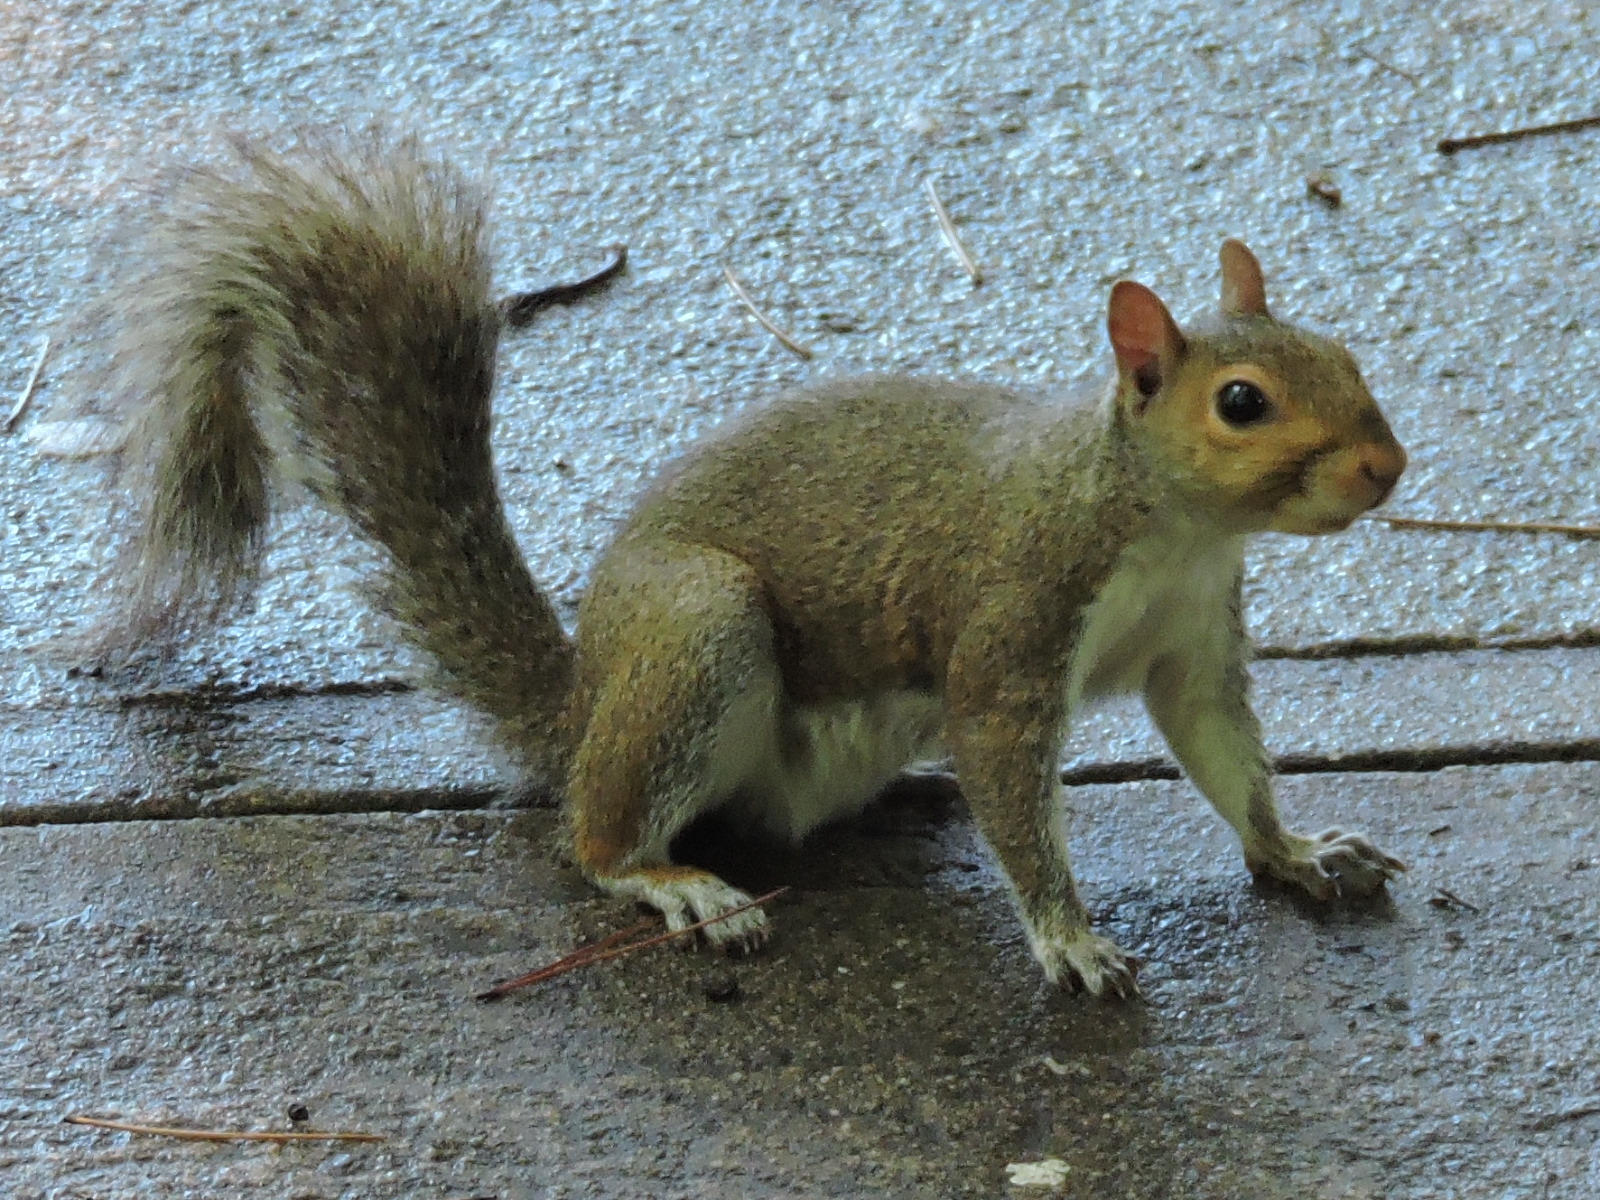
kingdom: Animalia
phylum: Chordata
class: Mammalia
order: Rodentia
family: Sciuridae
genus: Sciurus
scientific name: Sciurus carolinensis
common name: Eastern gray squirrel
